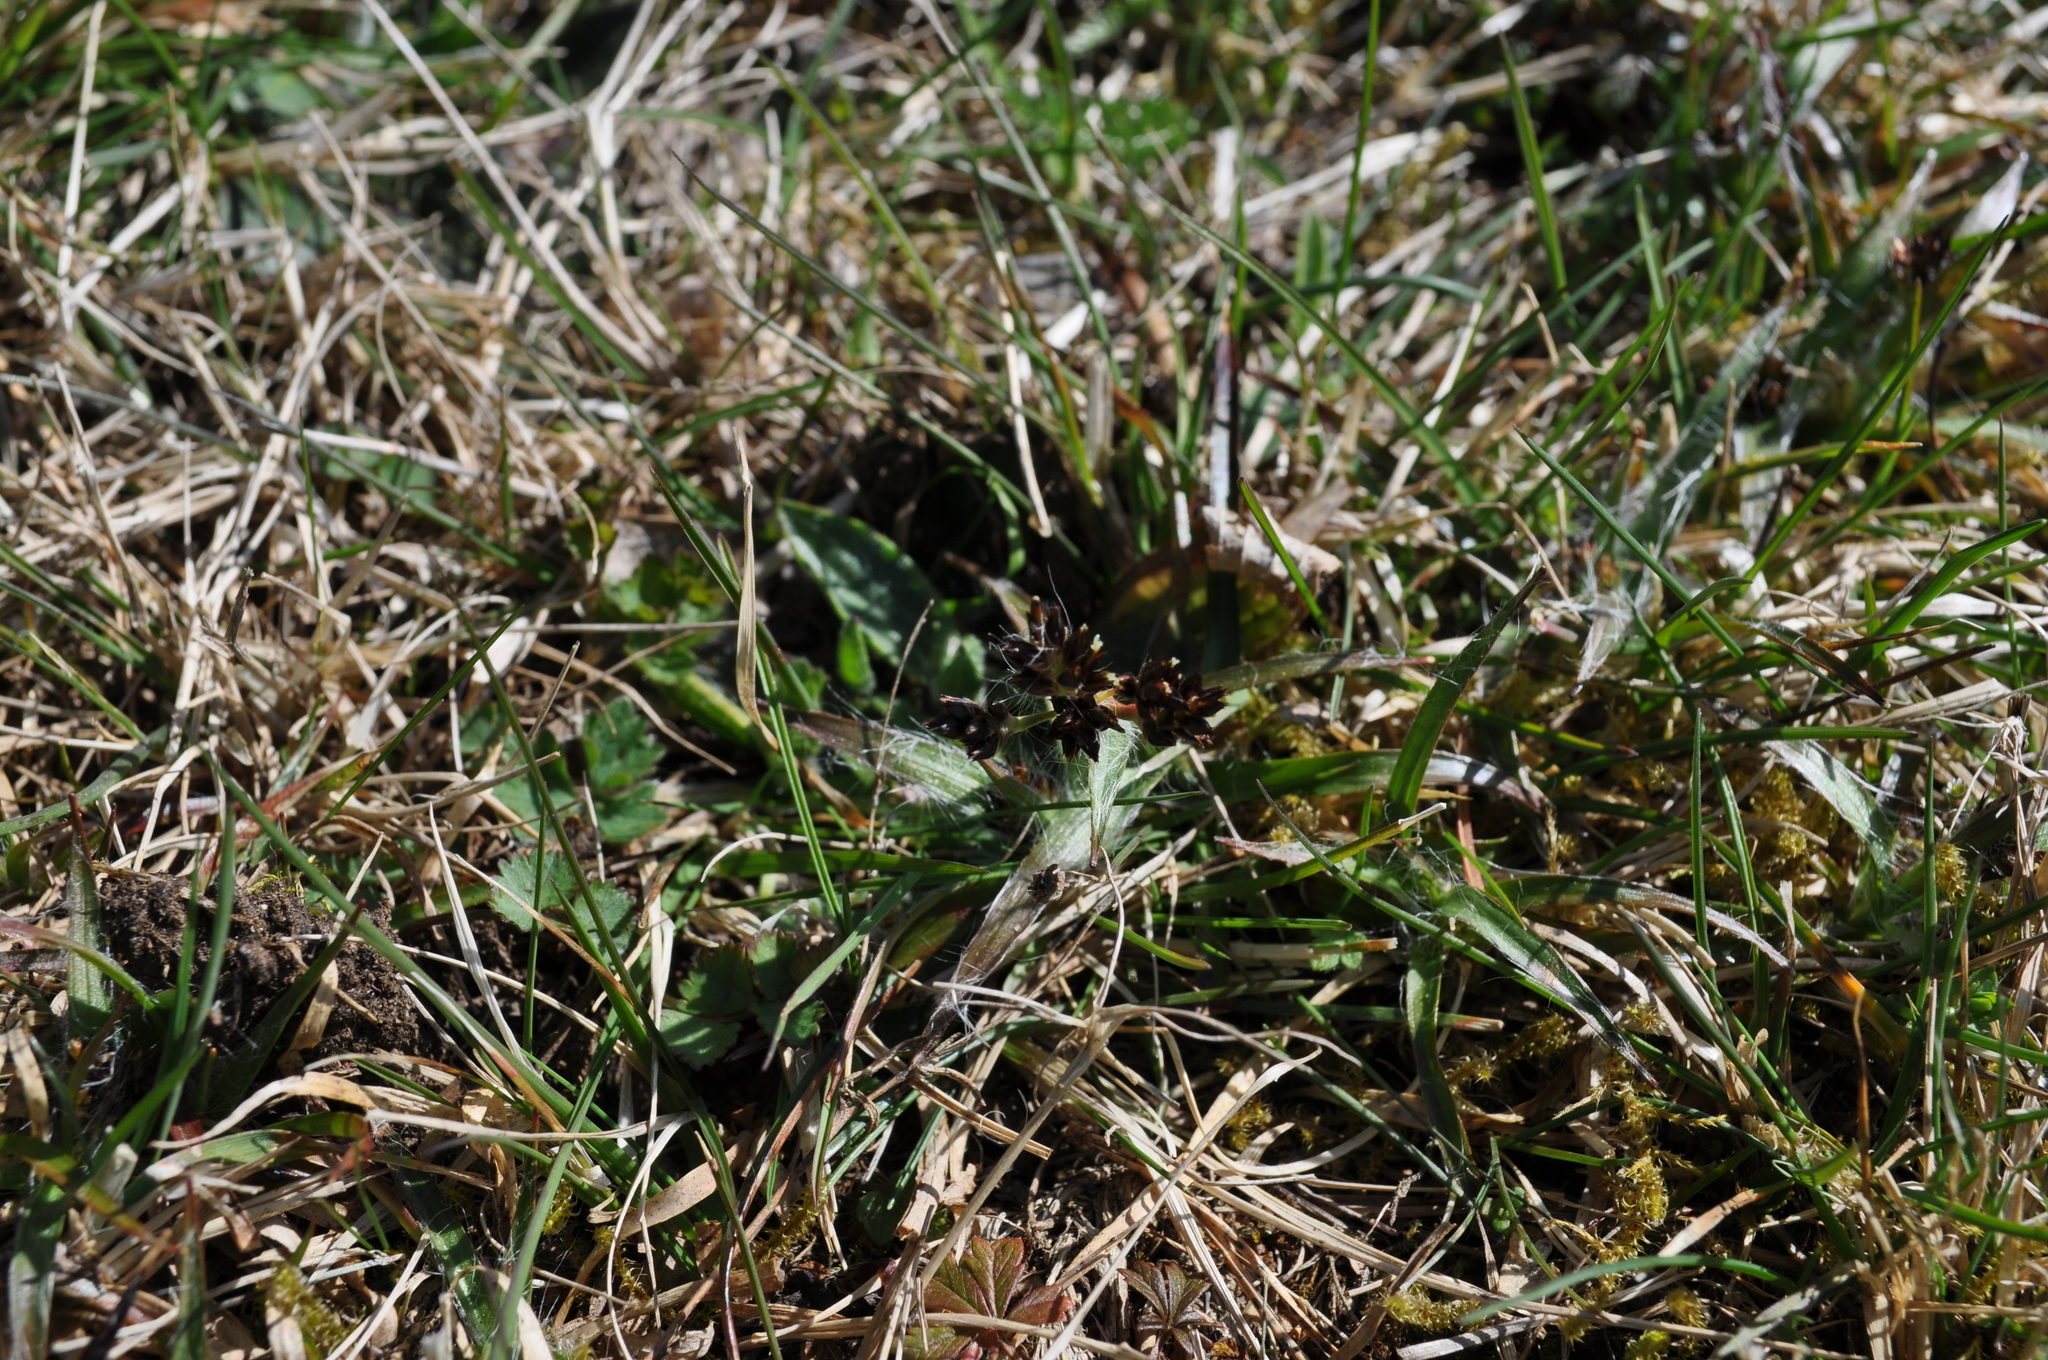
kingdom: Plantae
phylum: Tracheophyta
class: Liliopsida
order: Poales
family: Juncaceae
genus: Luzula
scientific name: Luzula pilosa
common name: Hairy wood-rush
